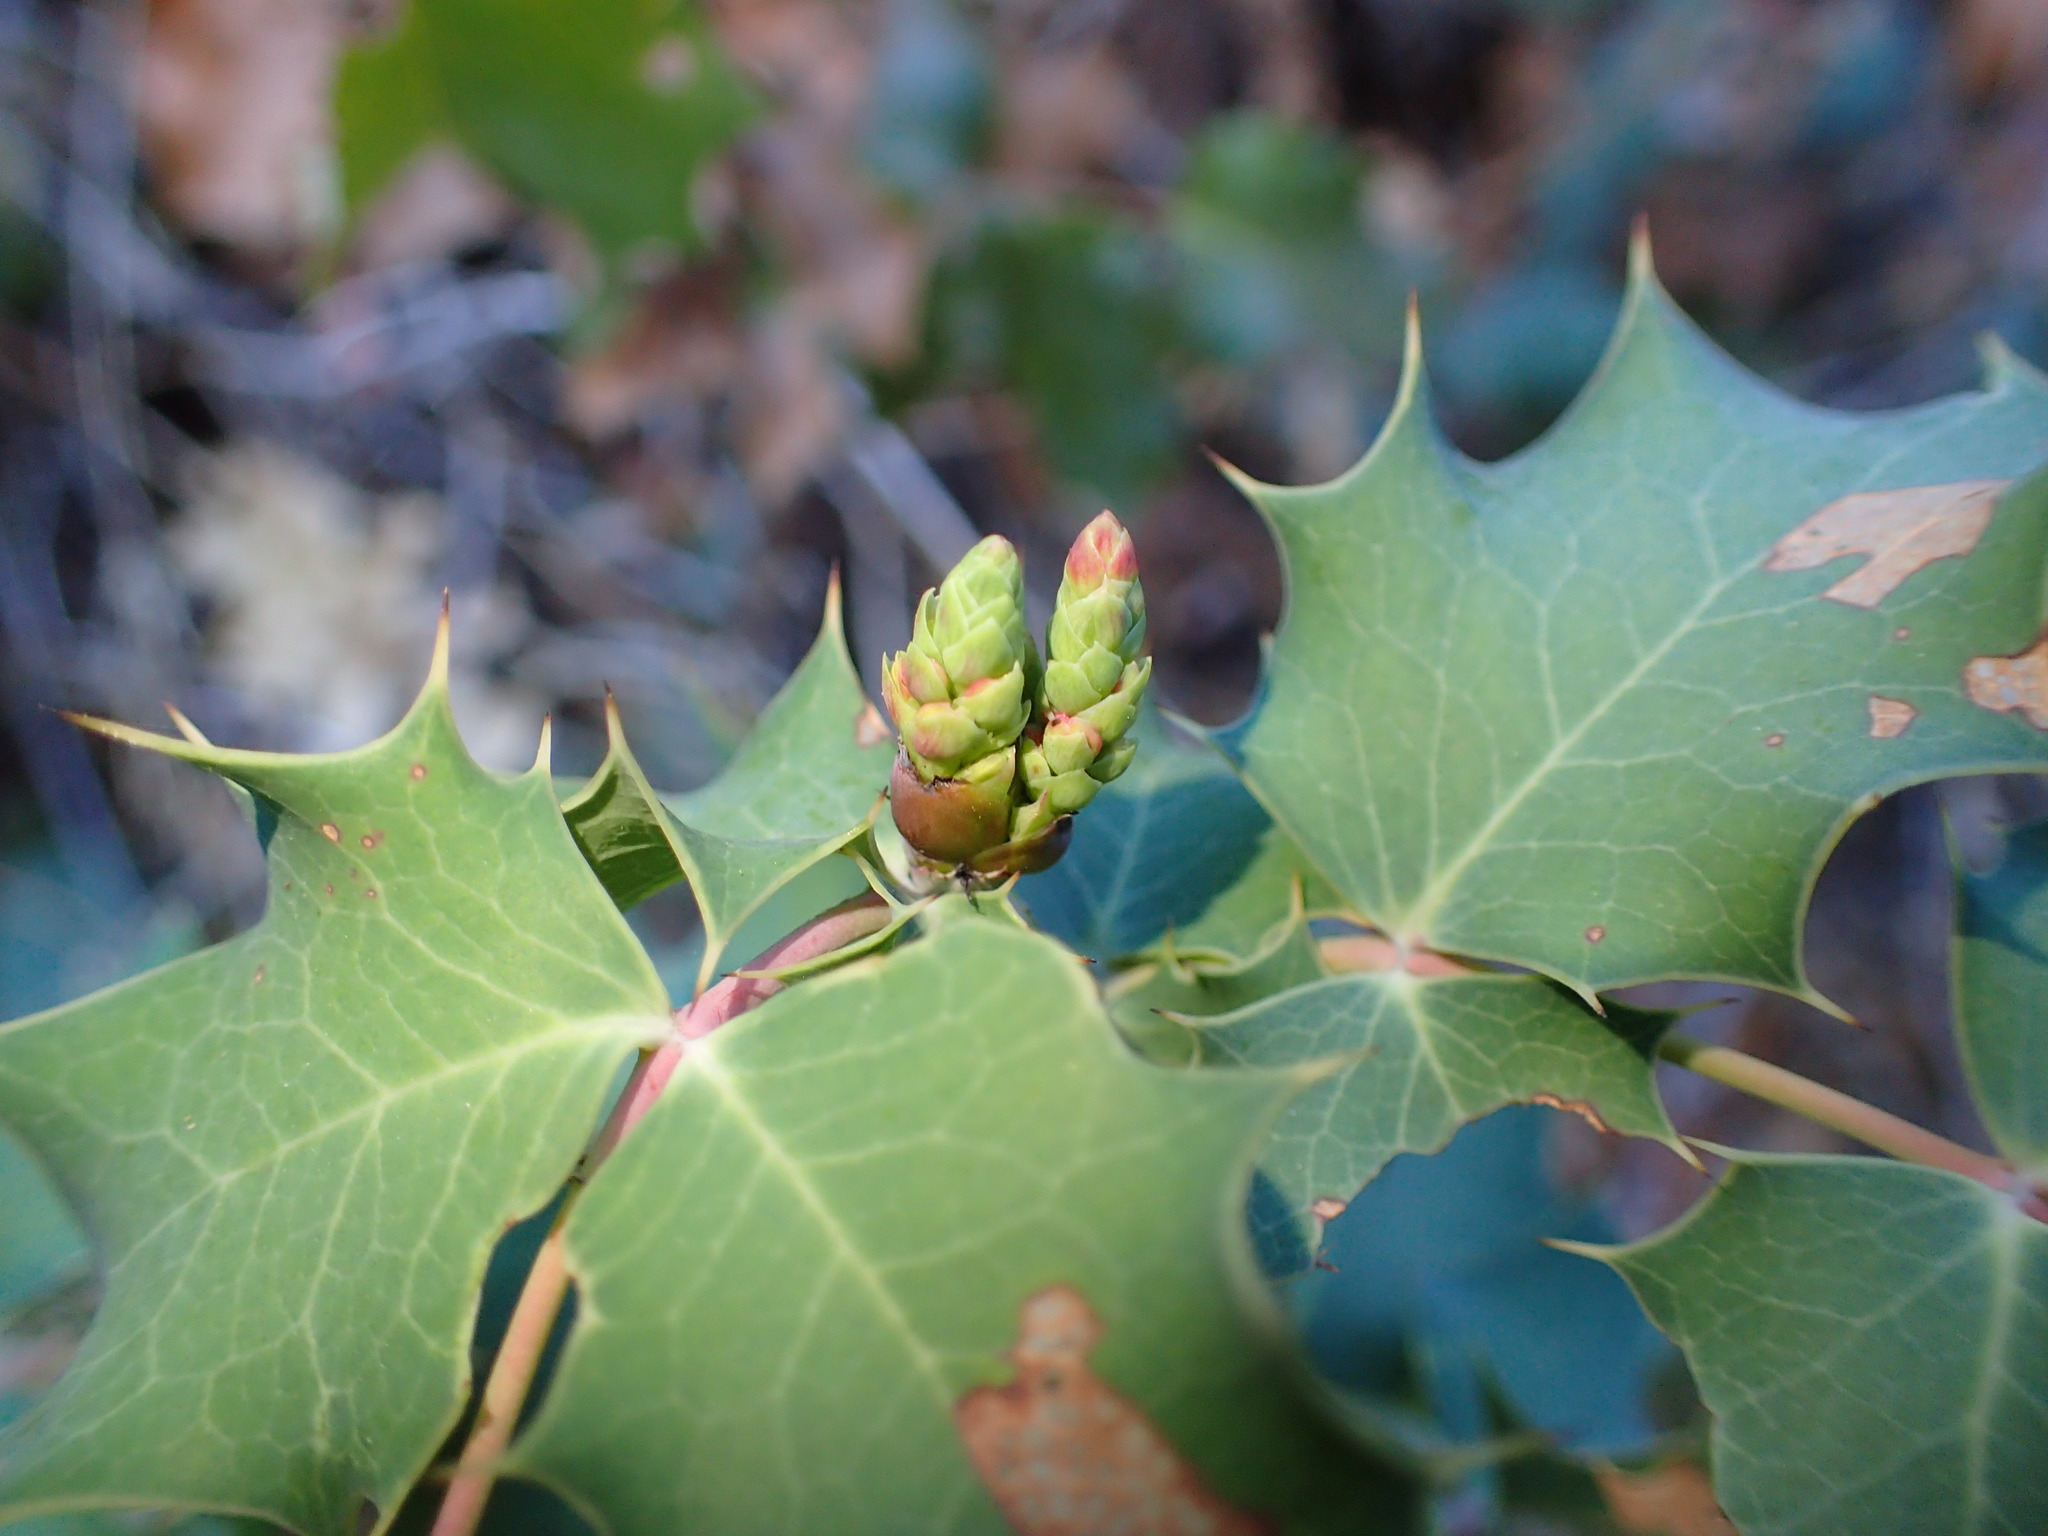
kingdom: Plantae
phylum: Tracheophyta
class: Magnoliopsida
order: Ranunculales
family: Berberidaceae
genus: Mahonia
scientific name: Mahonia dictyota
